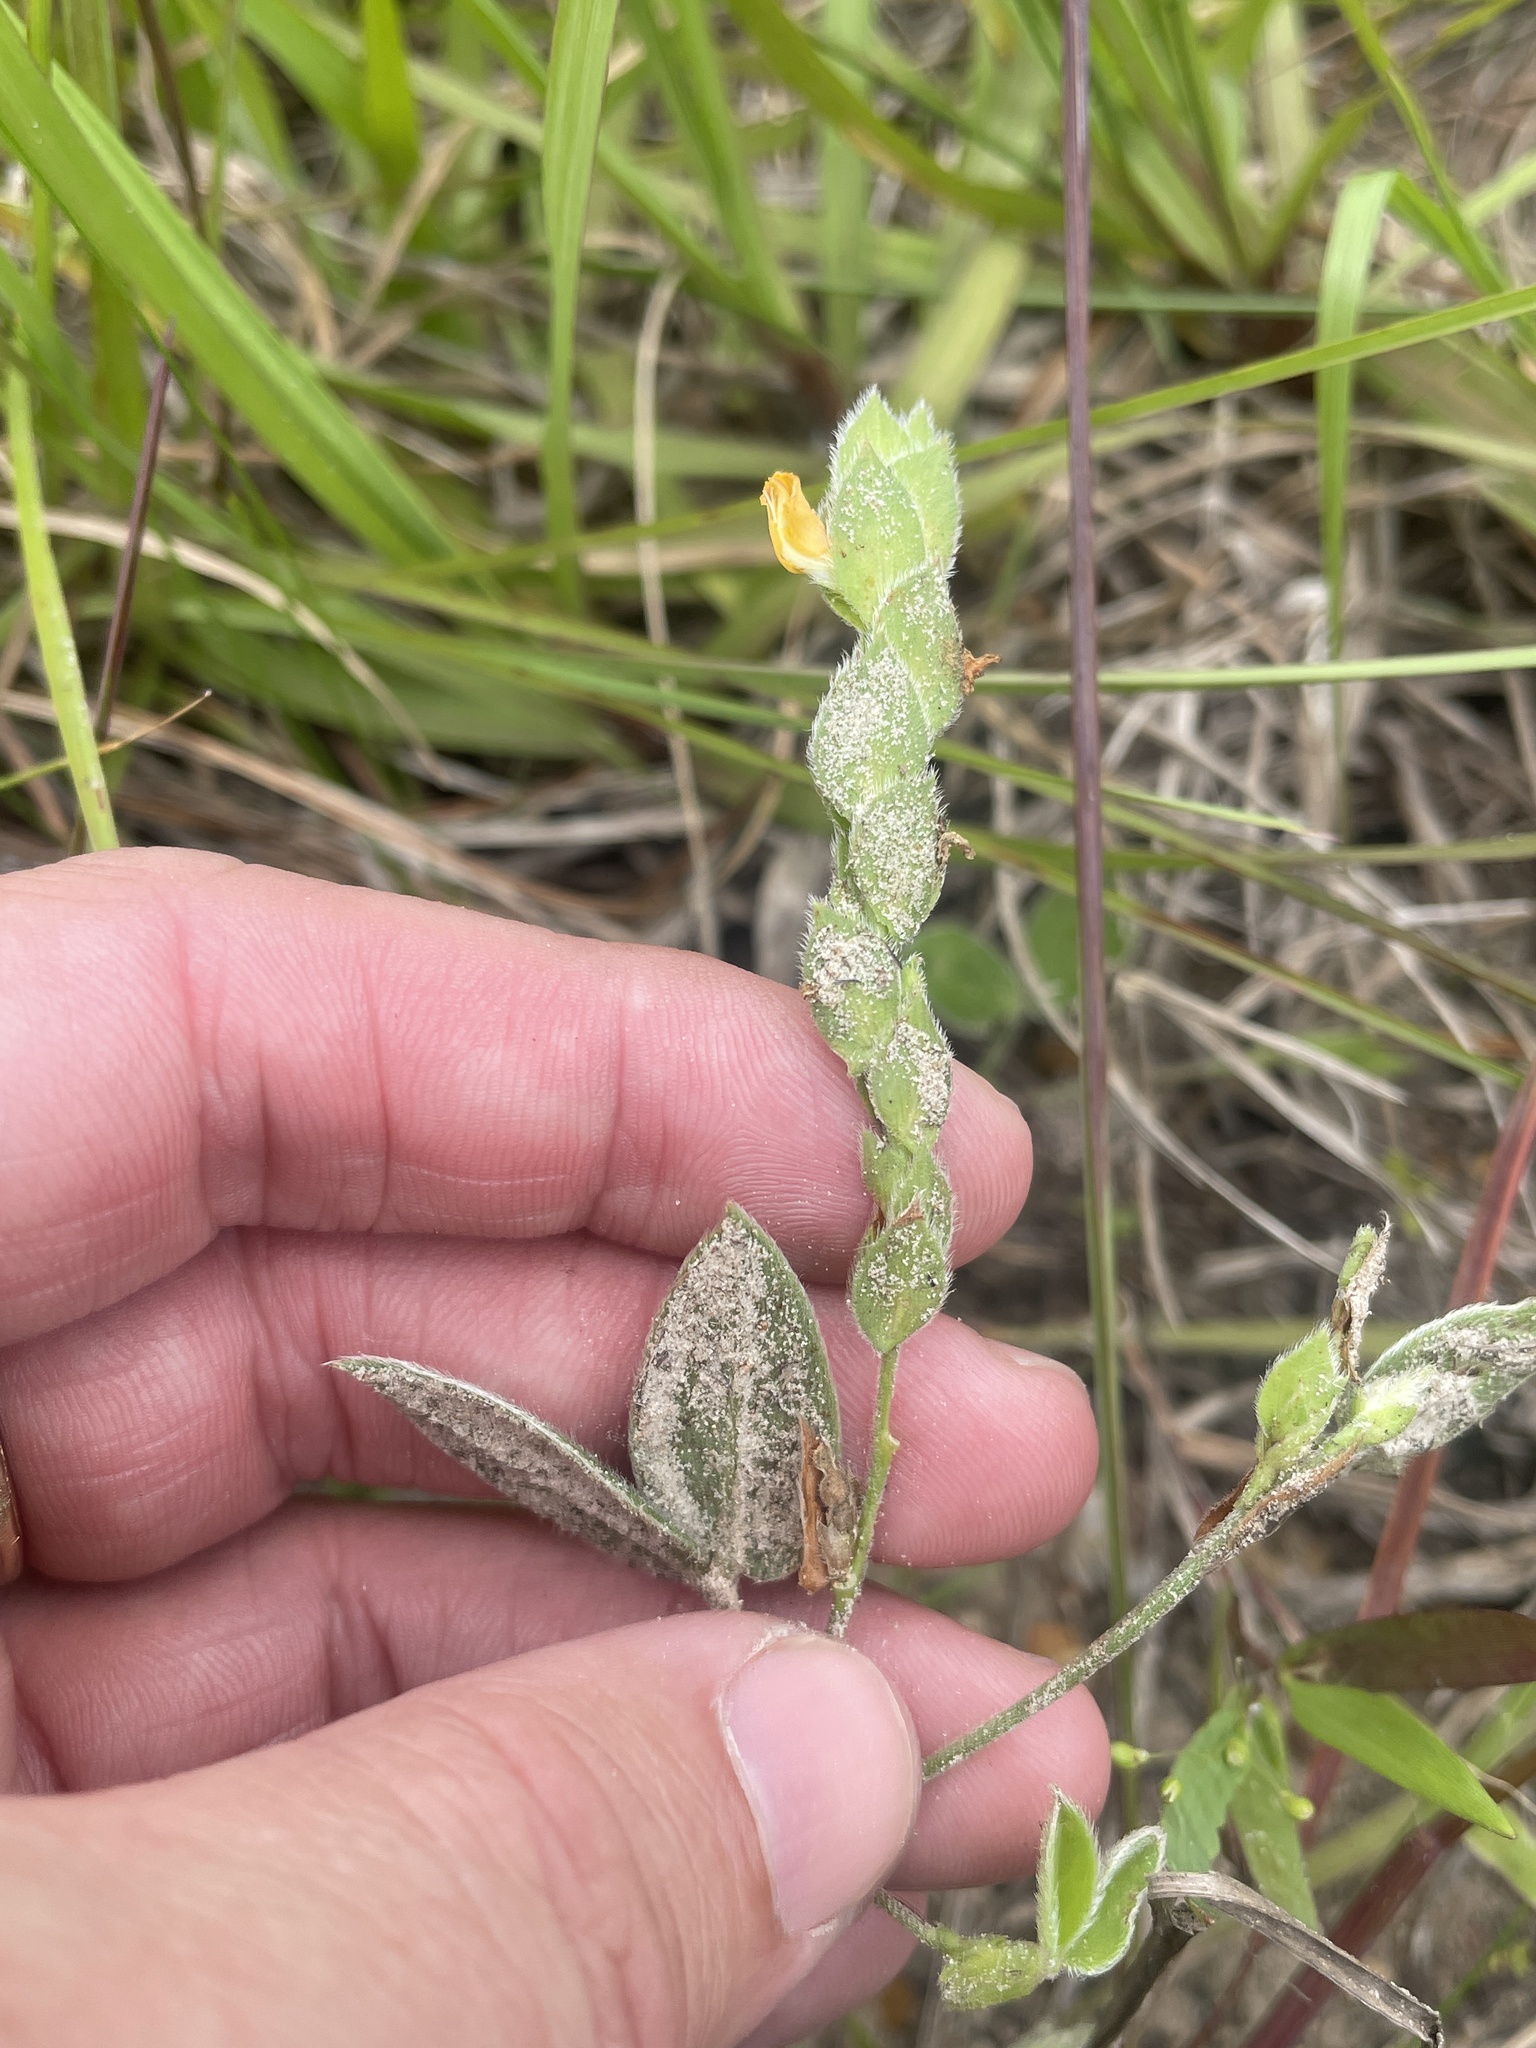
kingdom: Plantae
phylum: Tracheophyta
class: Magnoliopsida
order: Fabales
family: Fabaceae
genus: Zornia
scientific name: Zornia bracteata
